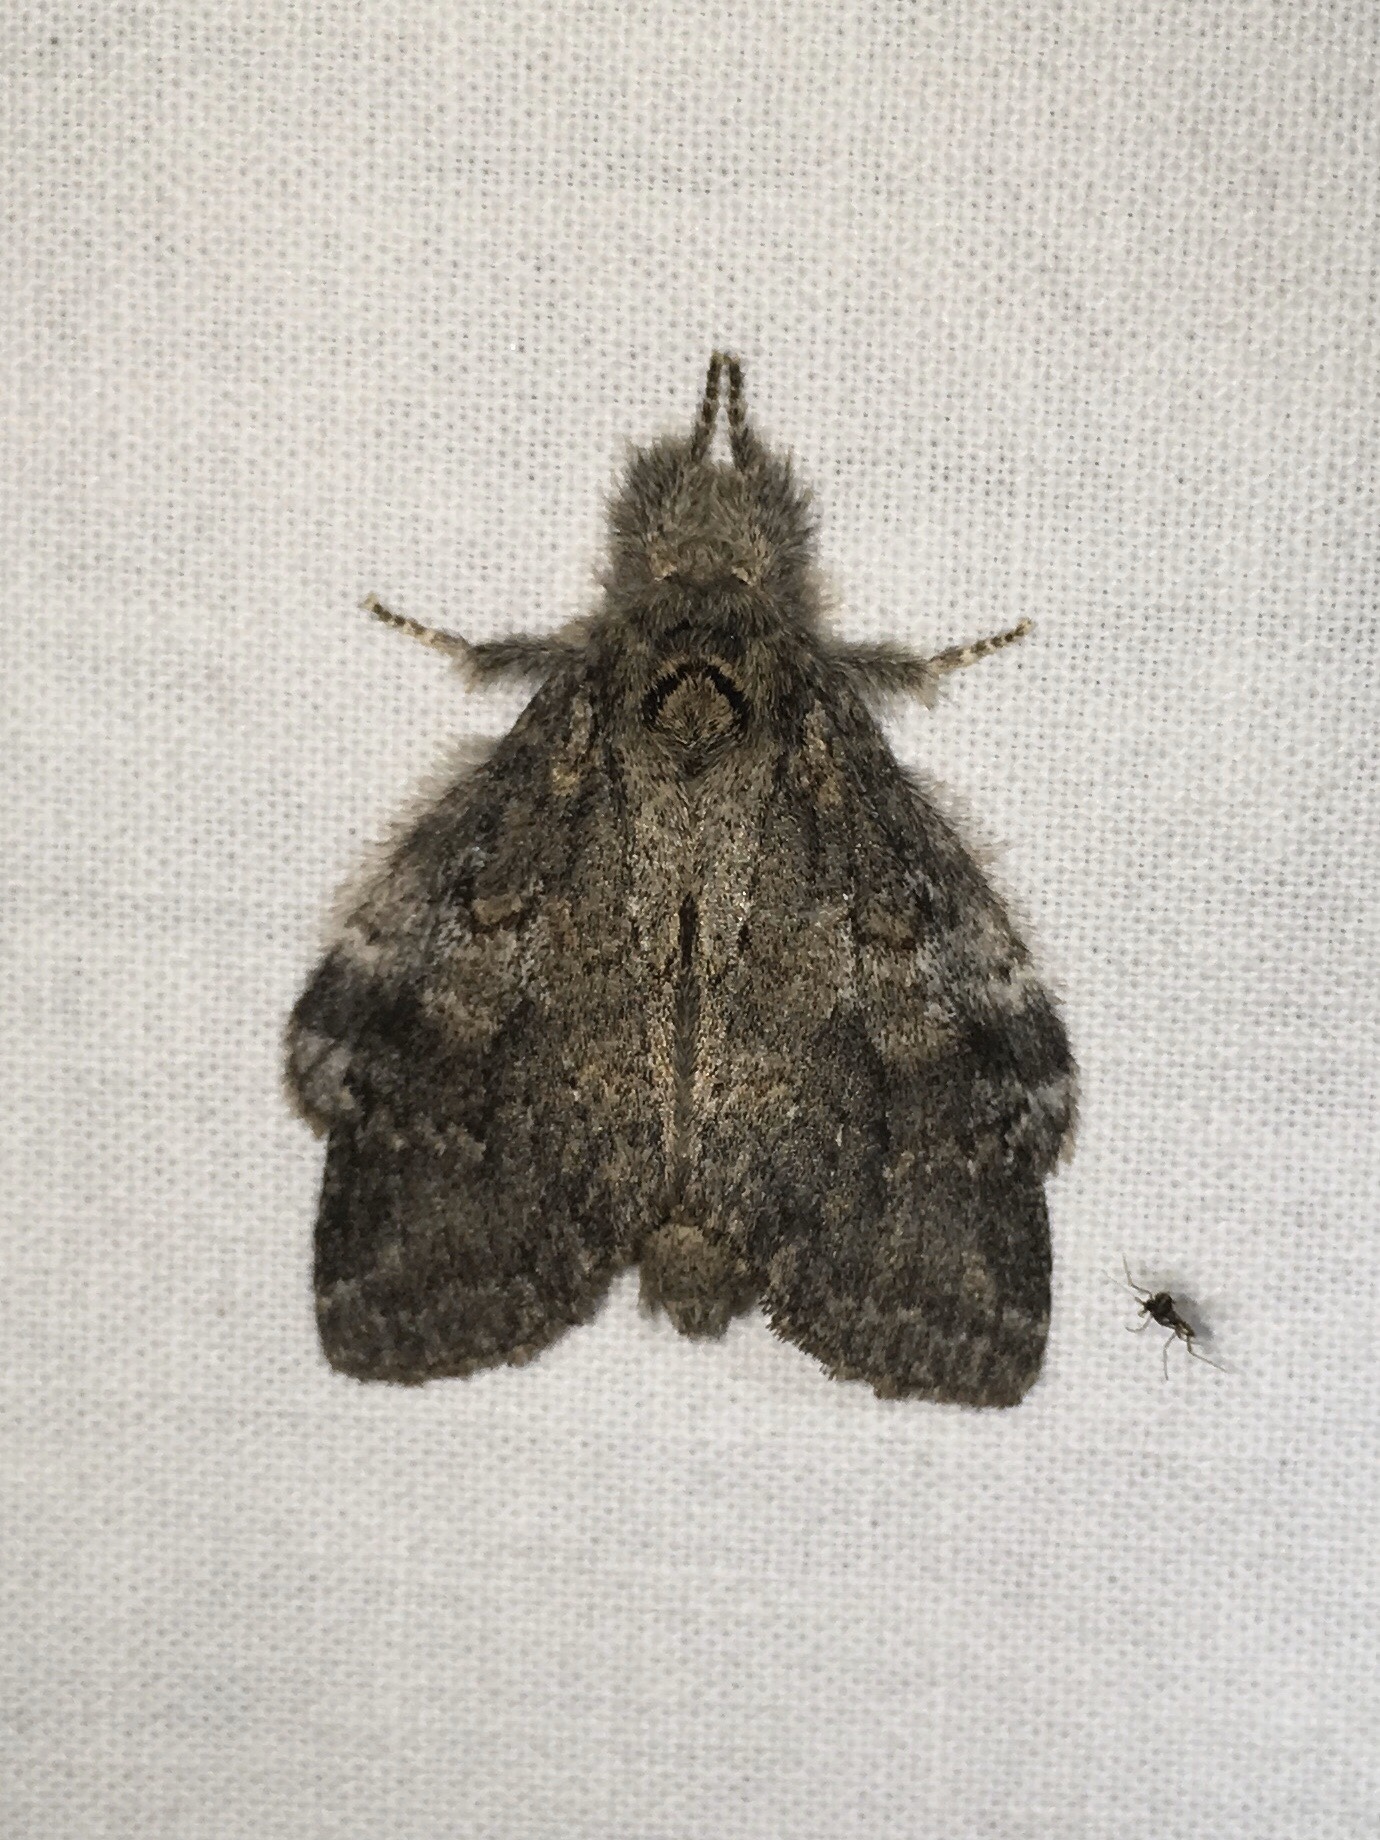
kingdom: Animalia
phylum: Arthropoda
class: Insecta
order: Lepidoptera
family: Notodontidae
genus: Peridea
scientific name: Peridea angulosa
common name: Angulose prominent
